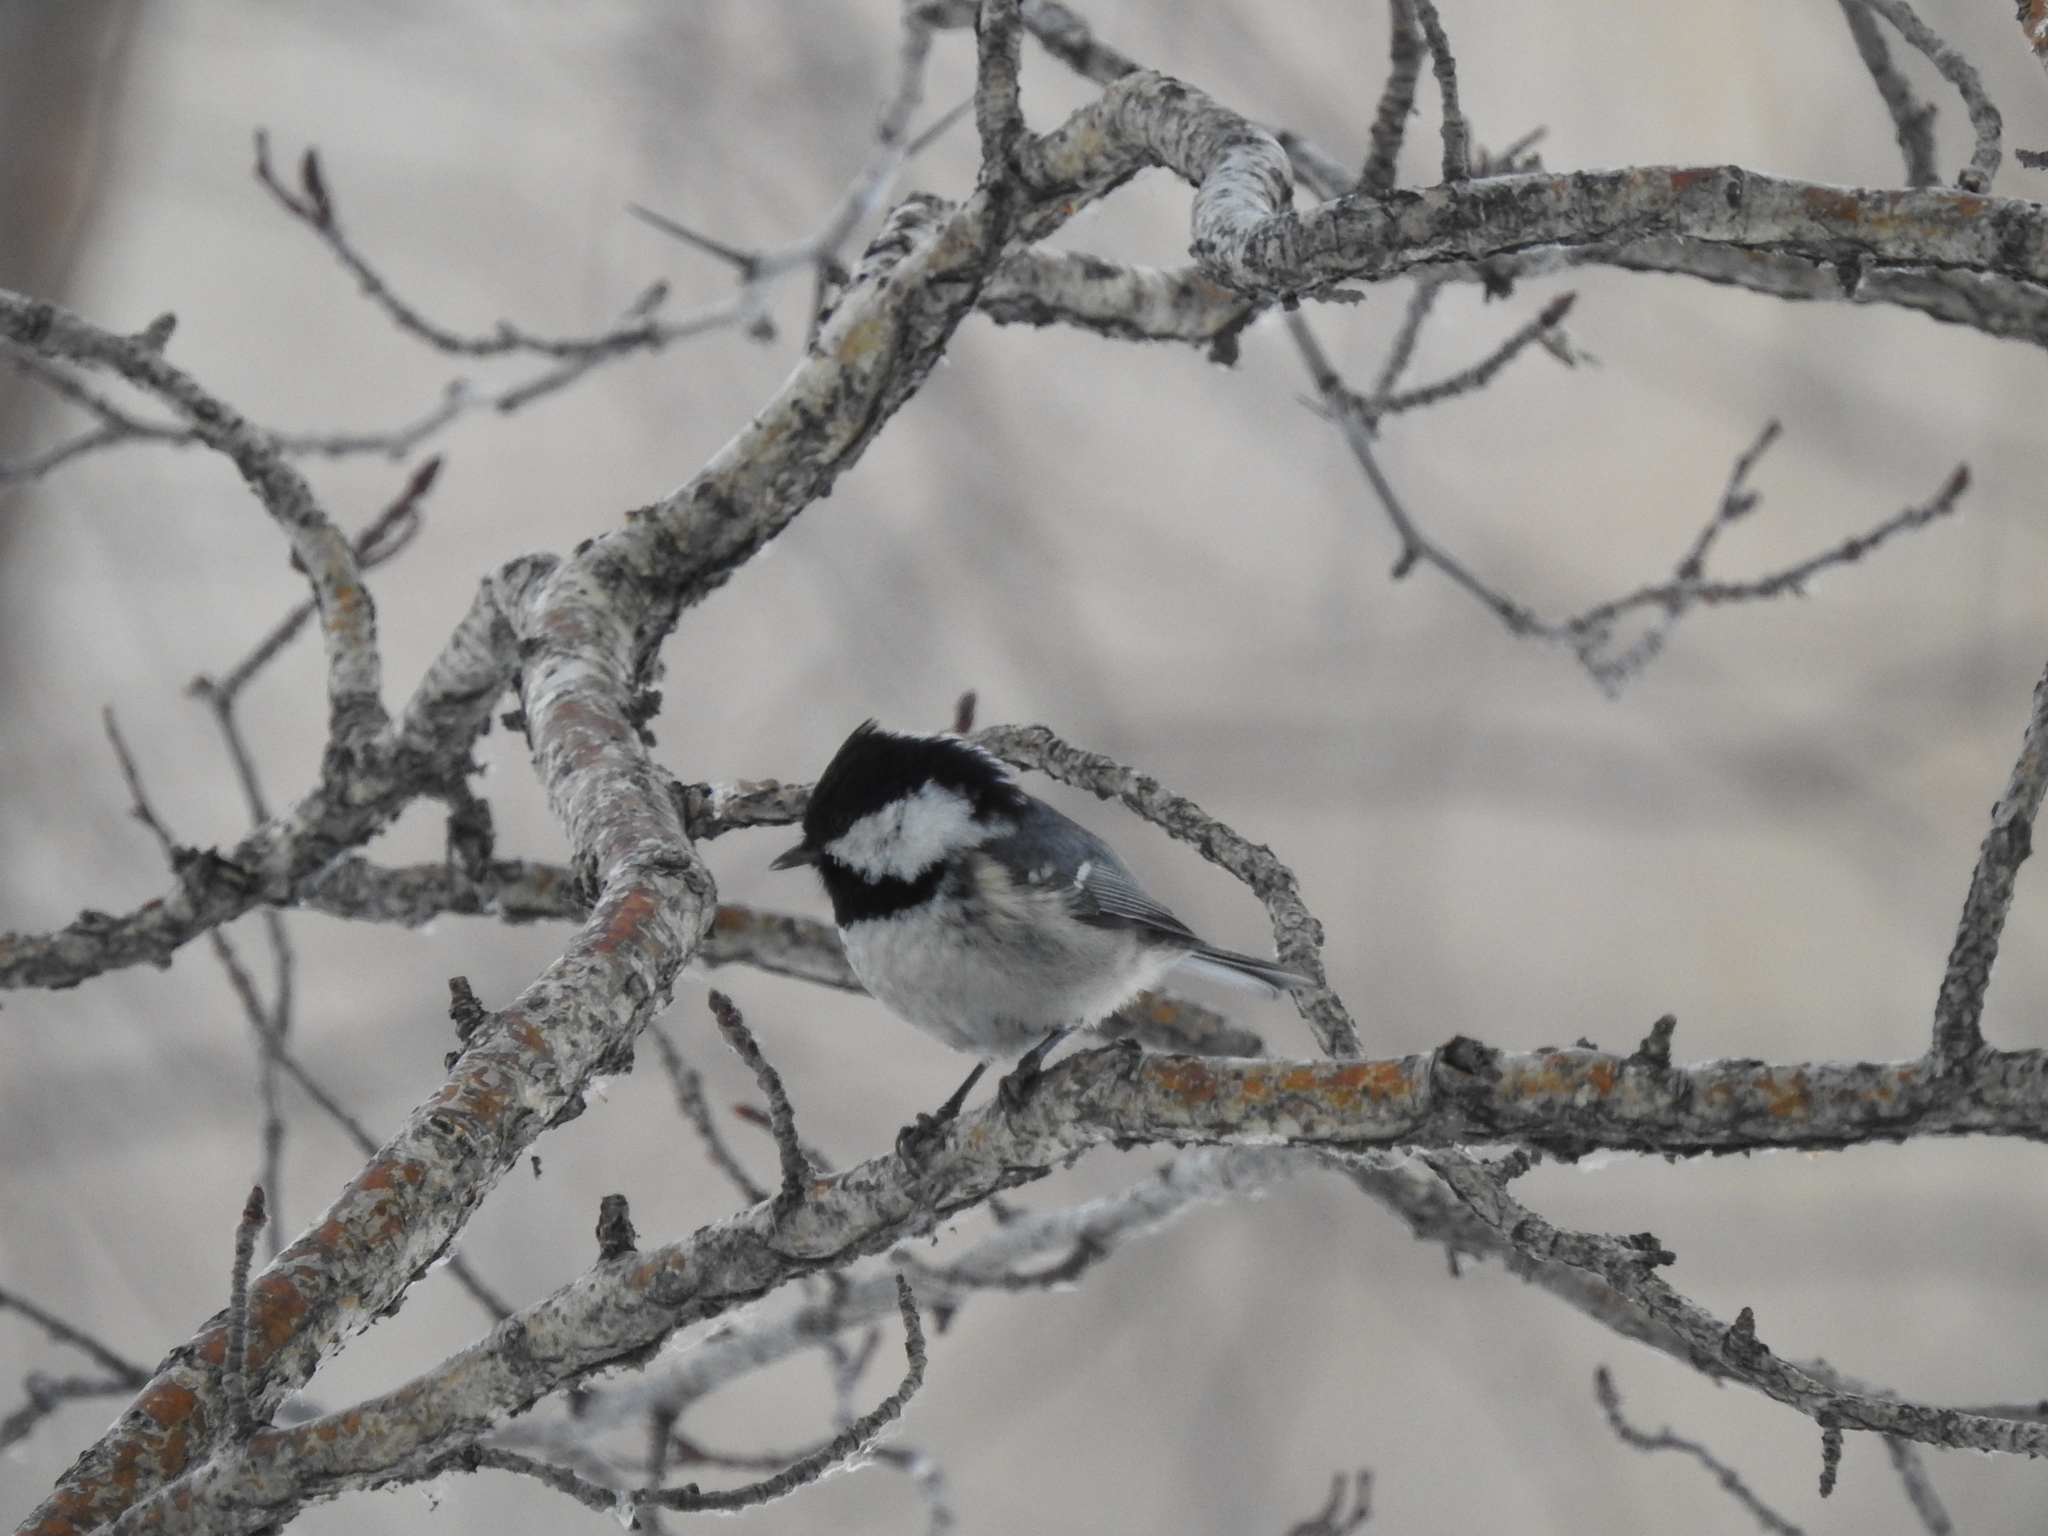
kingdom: Animalia
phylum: Chordata
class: Aves
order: Passeriformes
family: Paridae
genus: Periparus
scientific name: Periparus ater
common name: Coal tit
